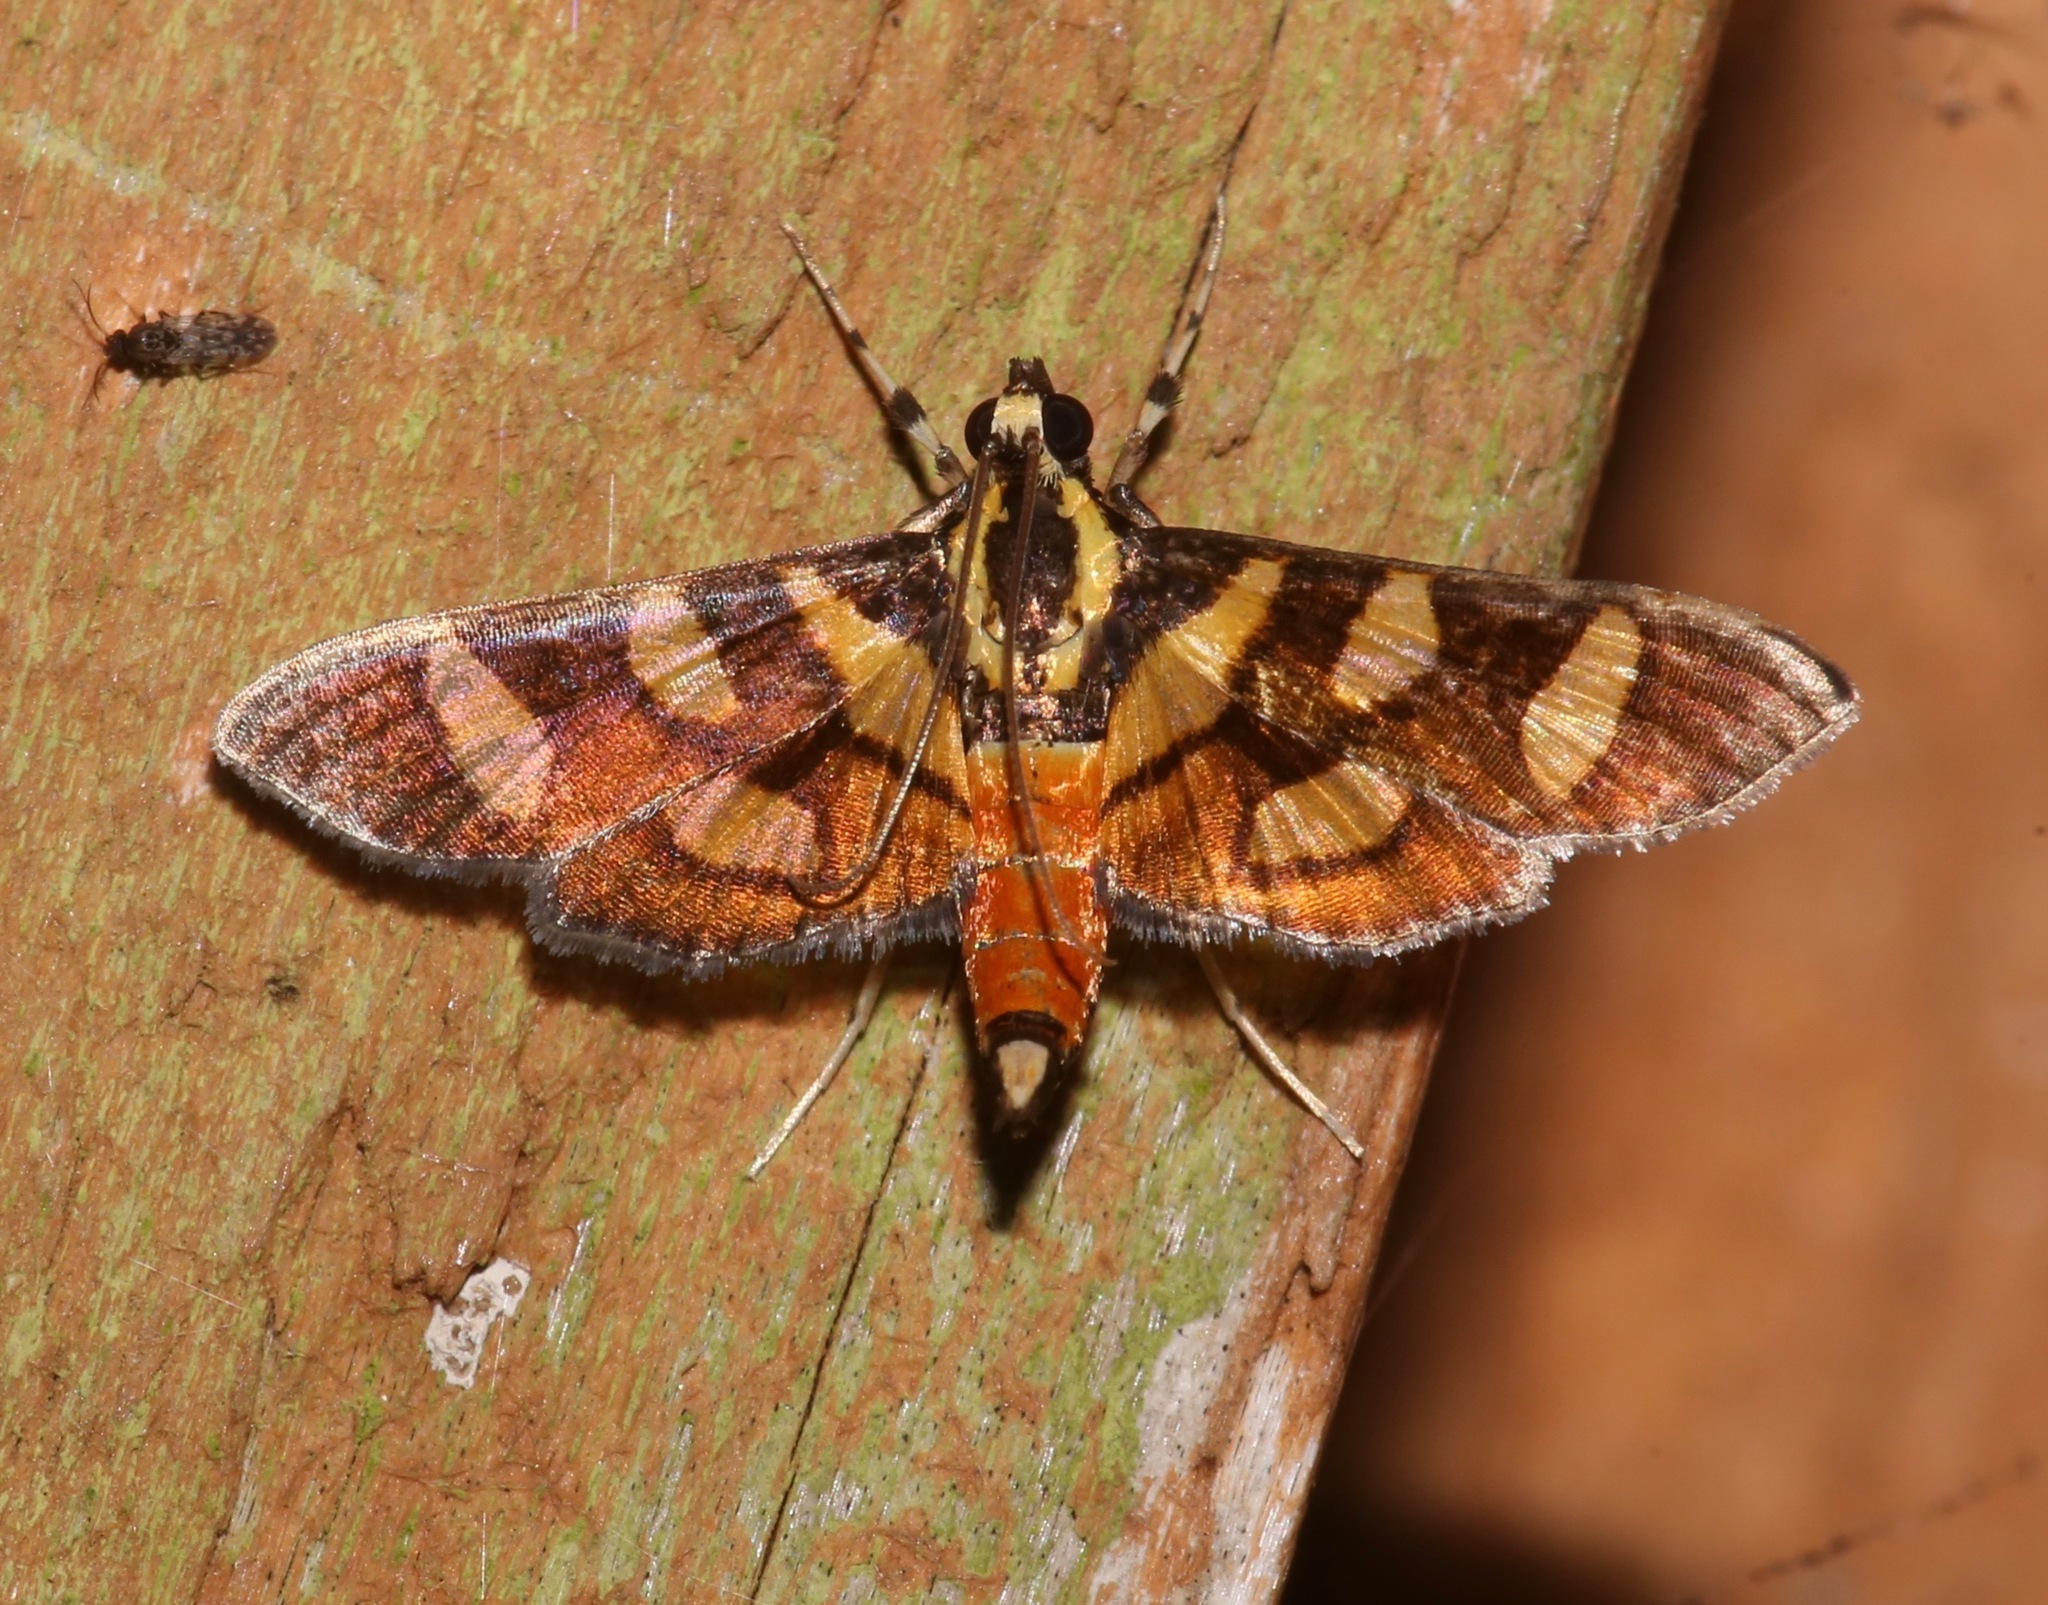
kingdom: Animalia
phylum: Arthropoda
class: Insecta
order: Lepidoptera
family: Crambidae
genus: Syngamia
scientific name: Syngamia florella
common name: Orange-spotted flower moth
